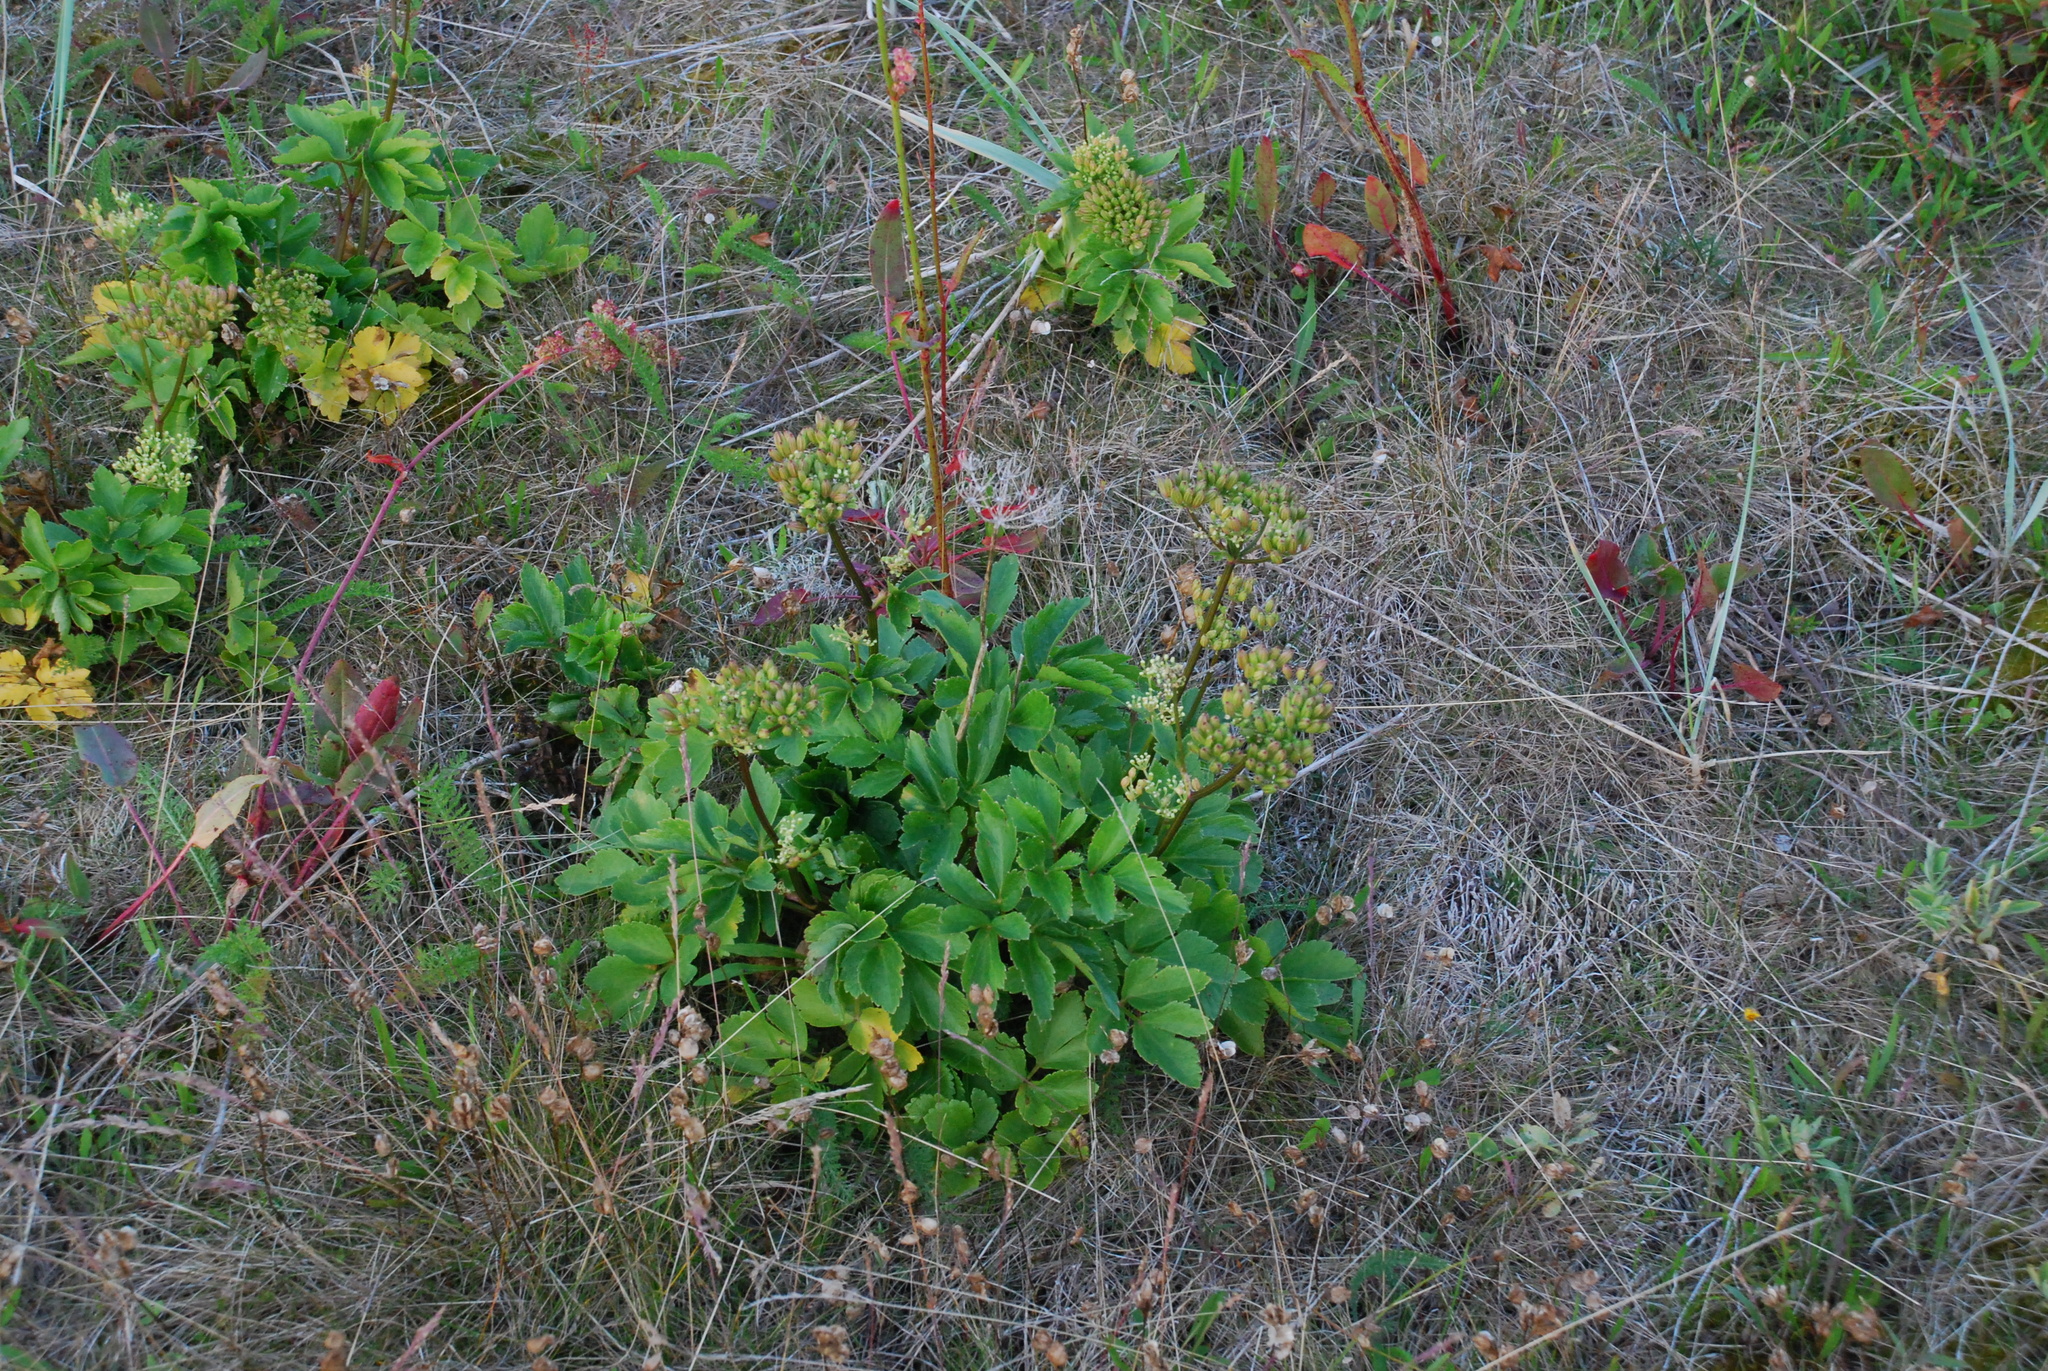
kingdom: Plantae
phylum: Tracheophyta
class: Magnoliopsida
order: Apiales
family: Apiaceae
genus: Ligusticum
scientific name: Ligusticum scothicum
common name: Beach lovage
